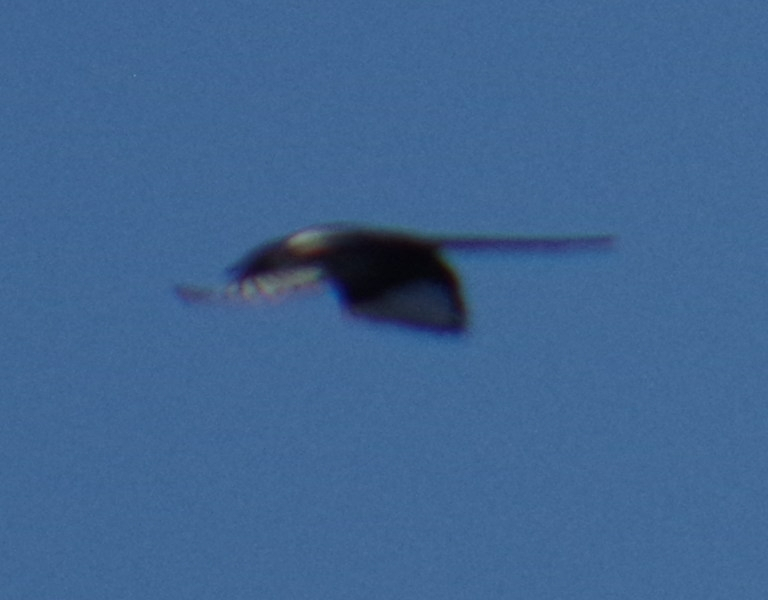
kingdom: Animalia
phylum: Chordata
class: Aves
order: Passeriformes
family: Corvidae
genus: Pica
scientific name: Pica hudsonia
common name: Black-billed magpie
